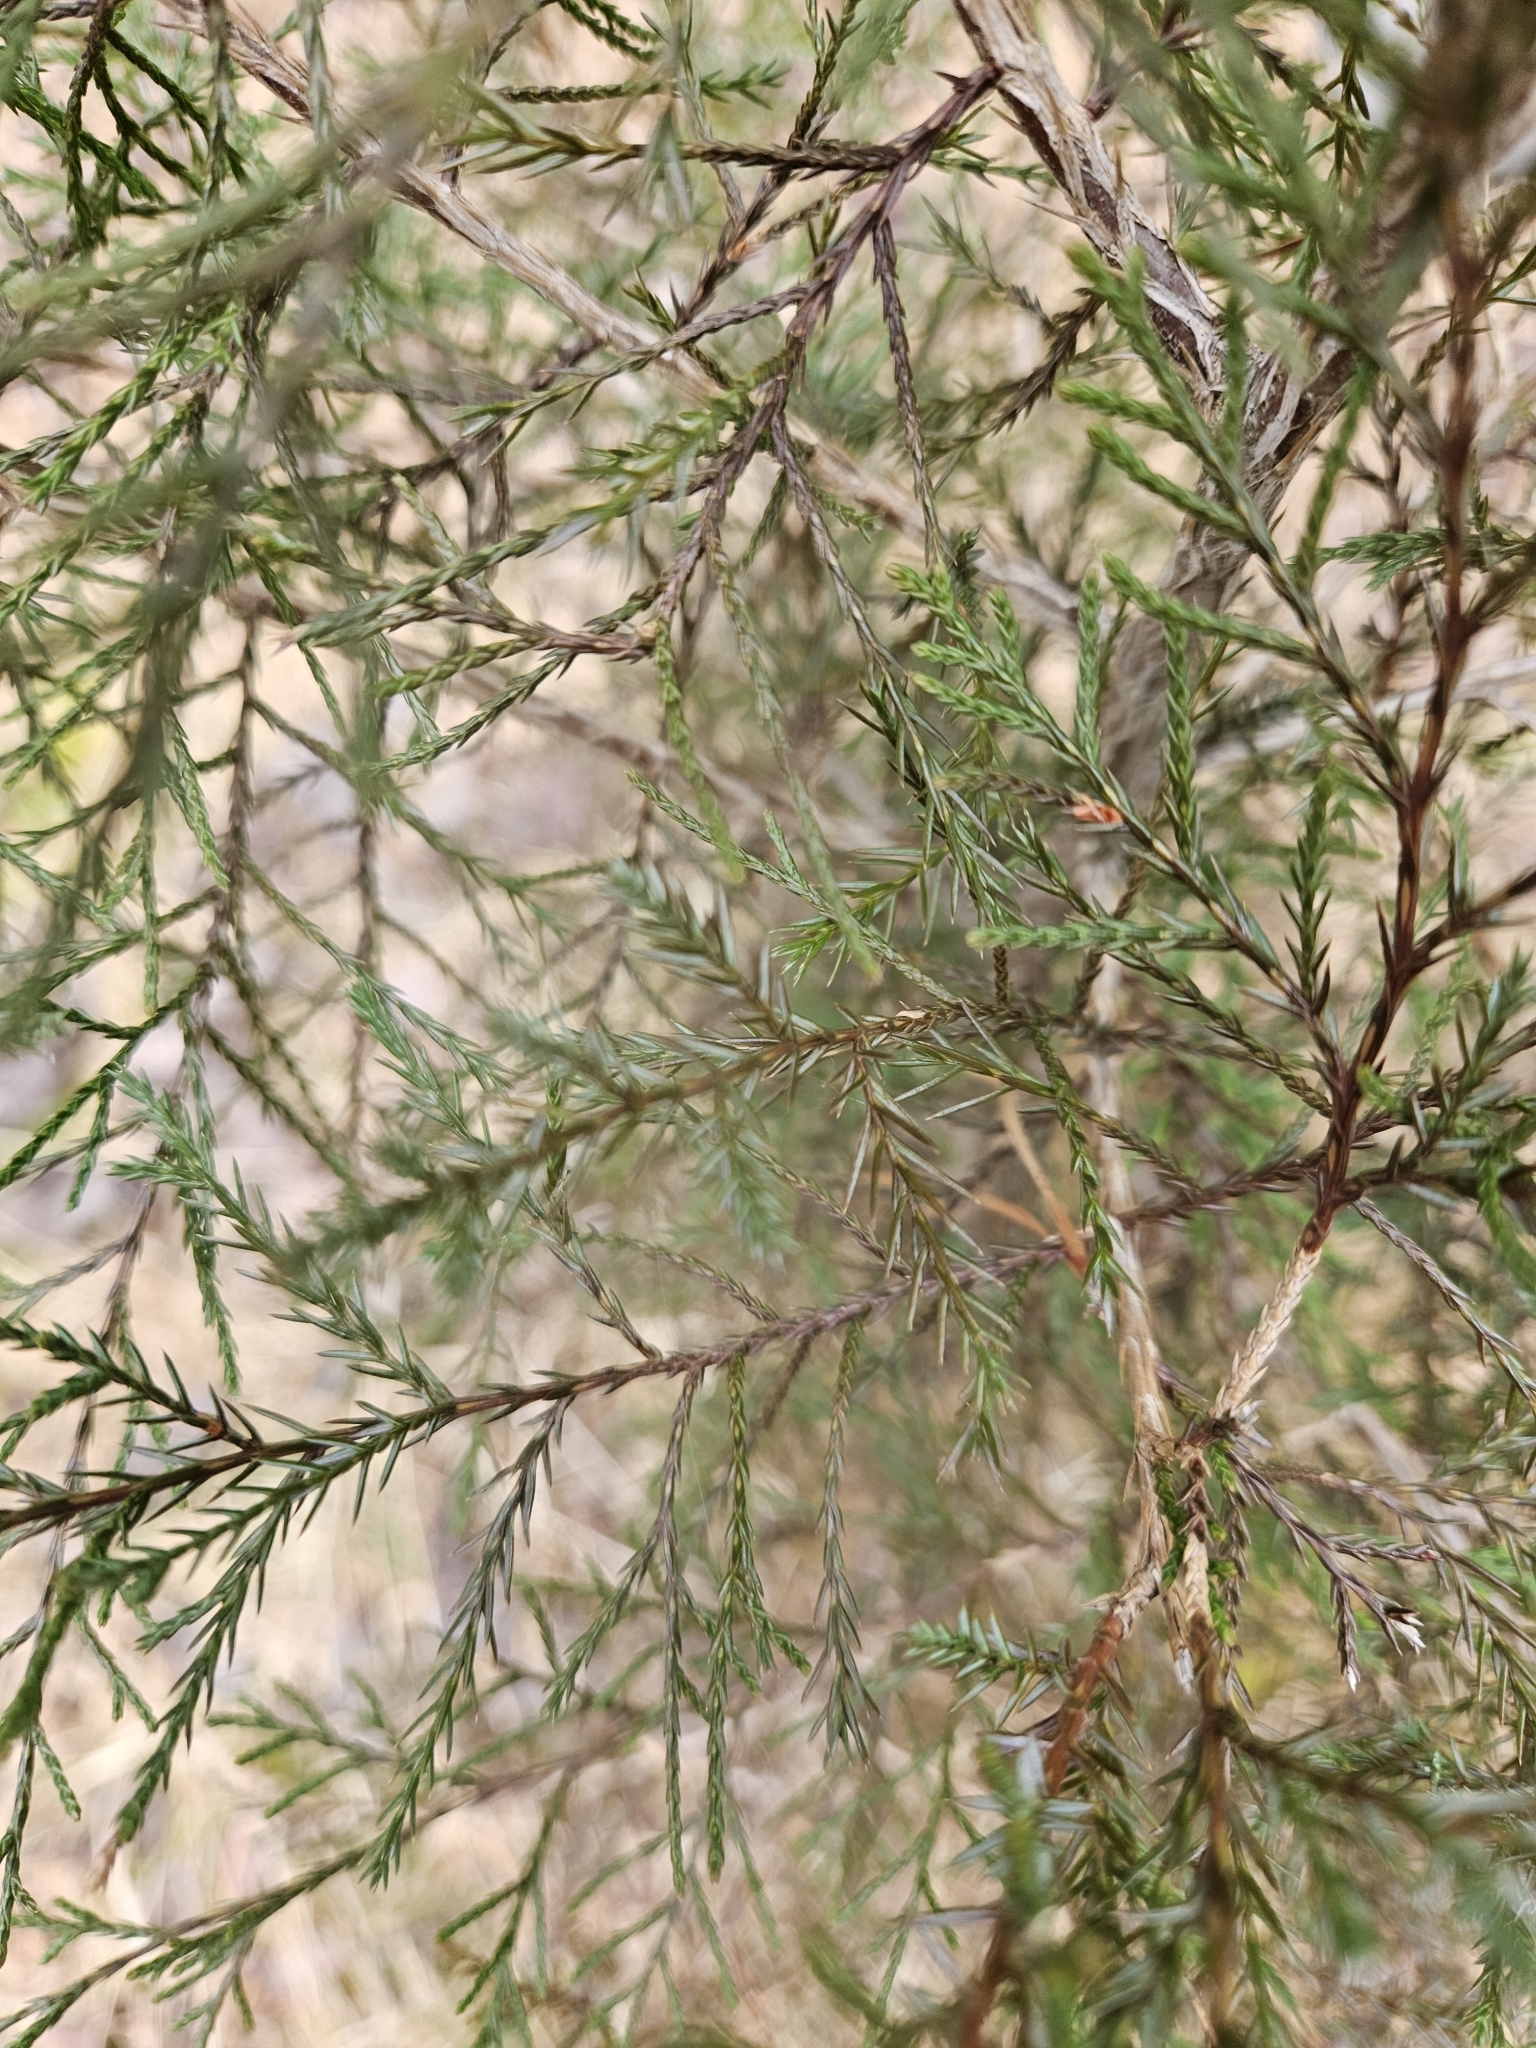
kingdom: Plantae
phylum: Tracheophyta
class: Pinopsida
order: Pinales
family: Cupressaceae
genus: Juniperus
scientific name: Juniperus virginiana
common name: Red juniper
